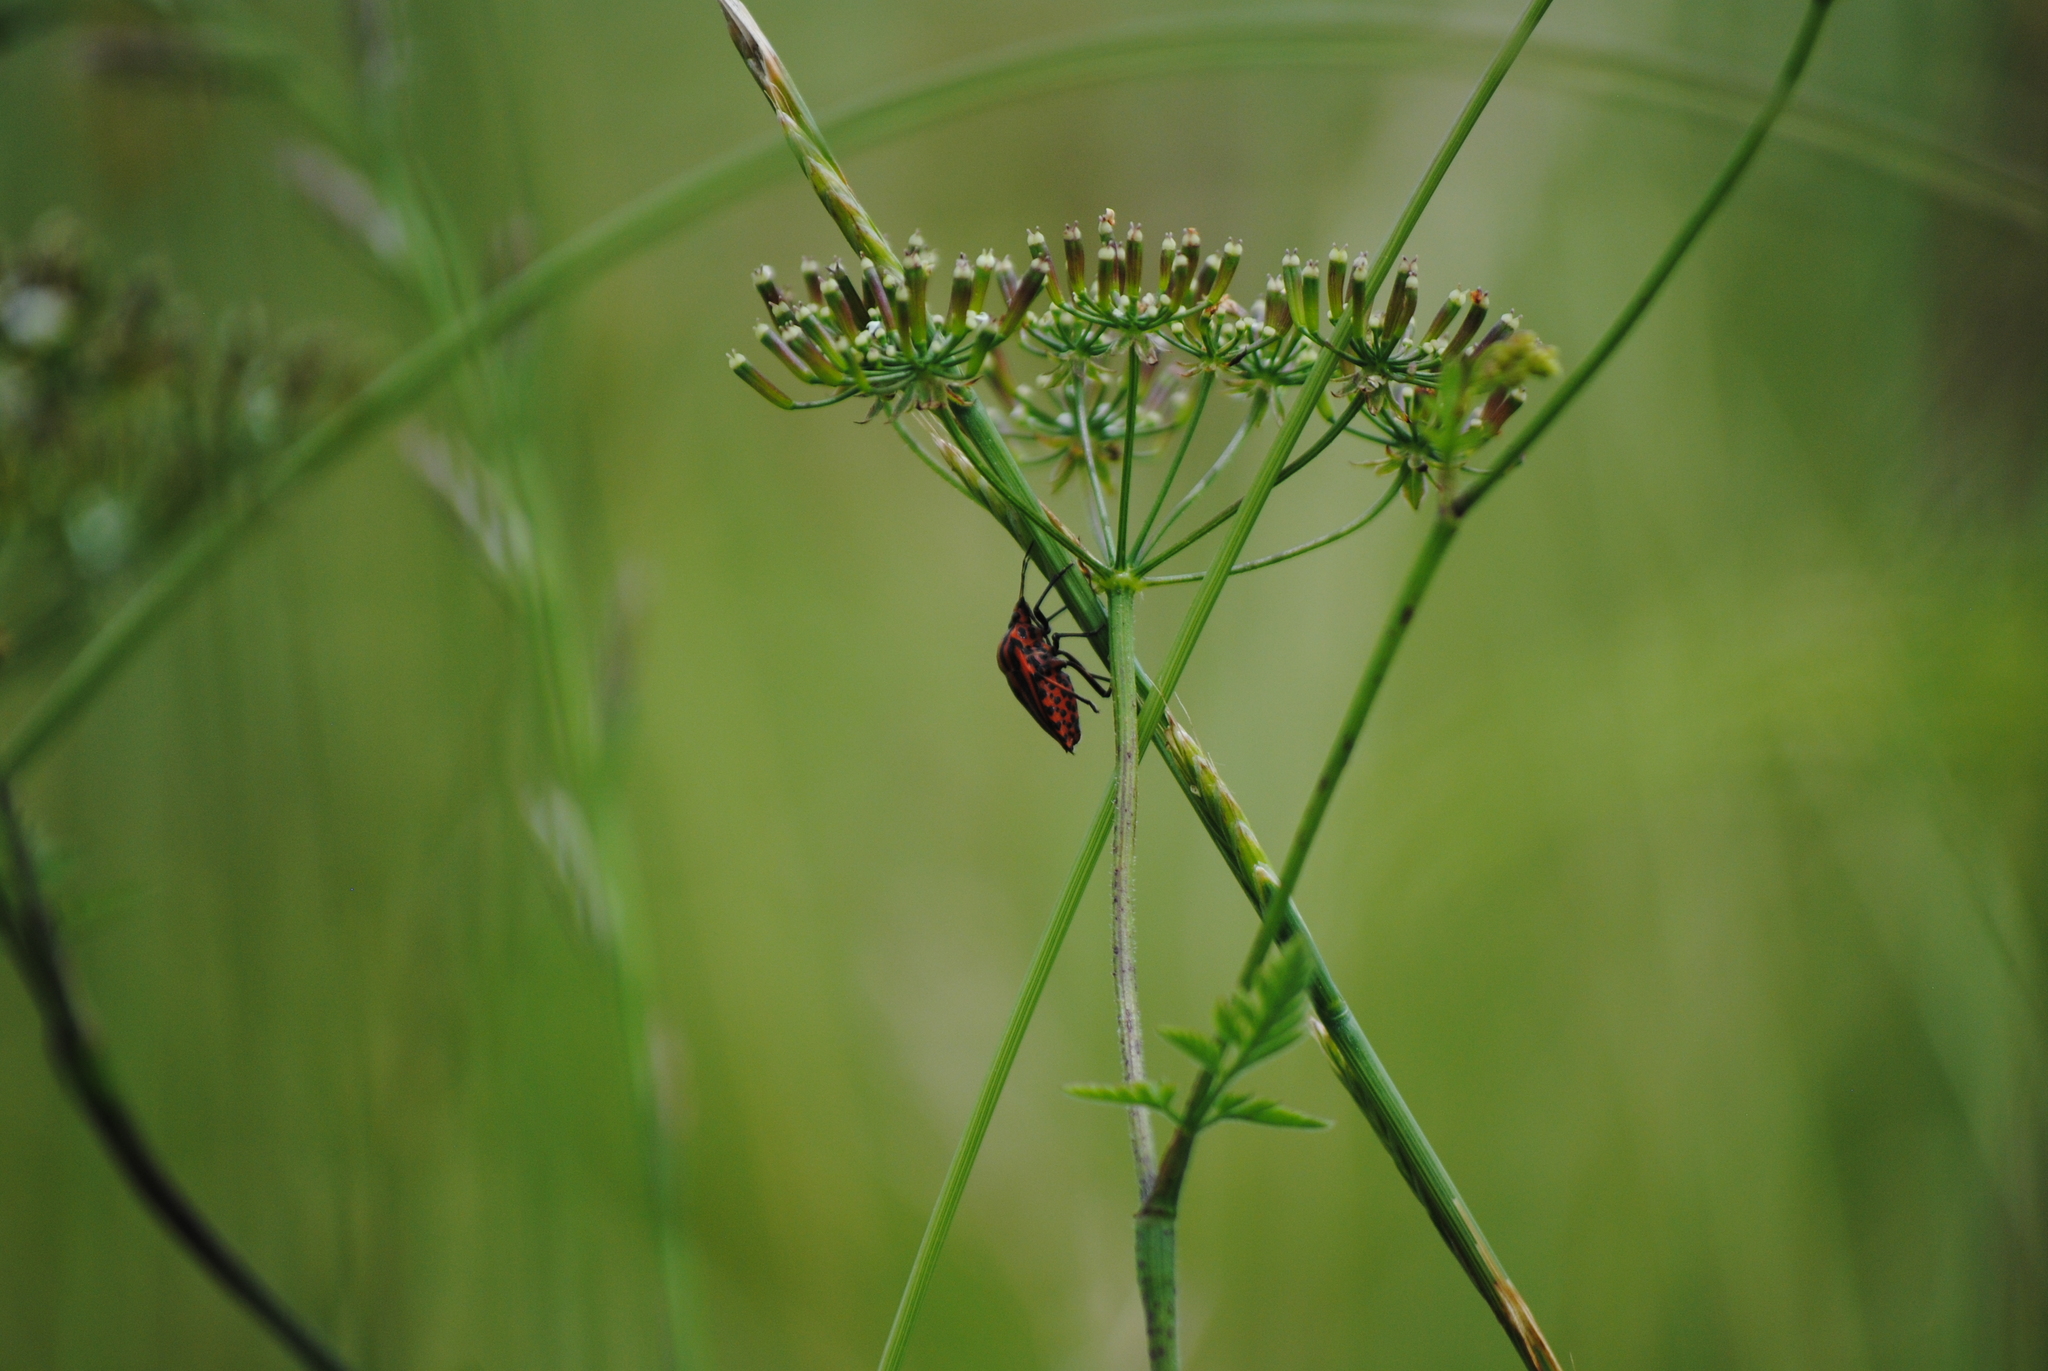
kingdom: Animalia
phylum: Arthropoda
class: Insecta
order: Hemiptera
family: Pentatomidae
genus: Graphosoma
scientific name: Graphosoma italicum
